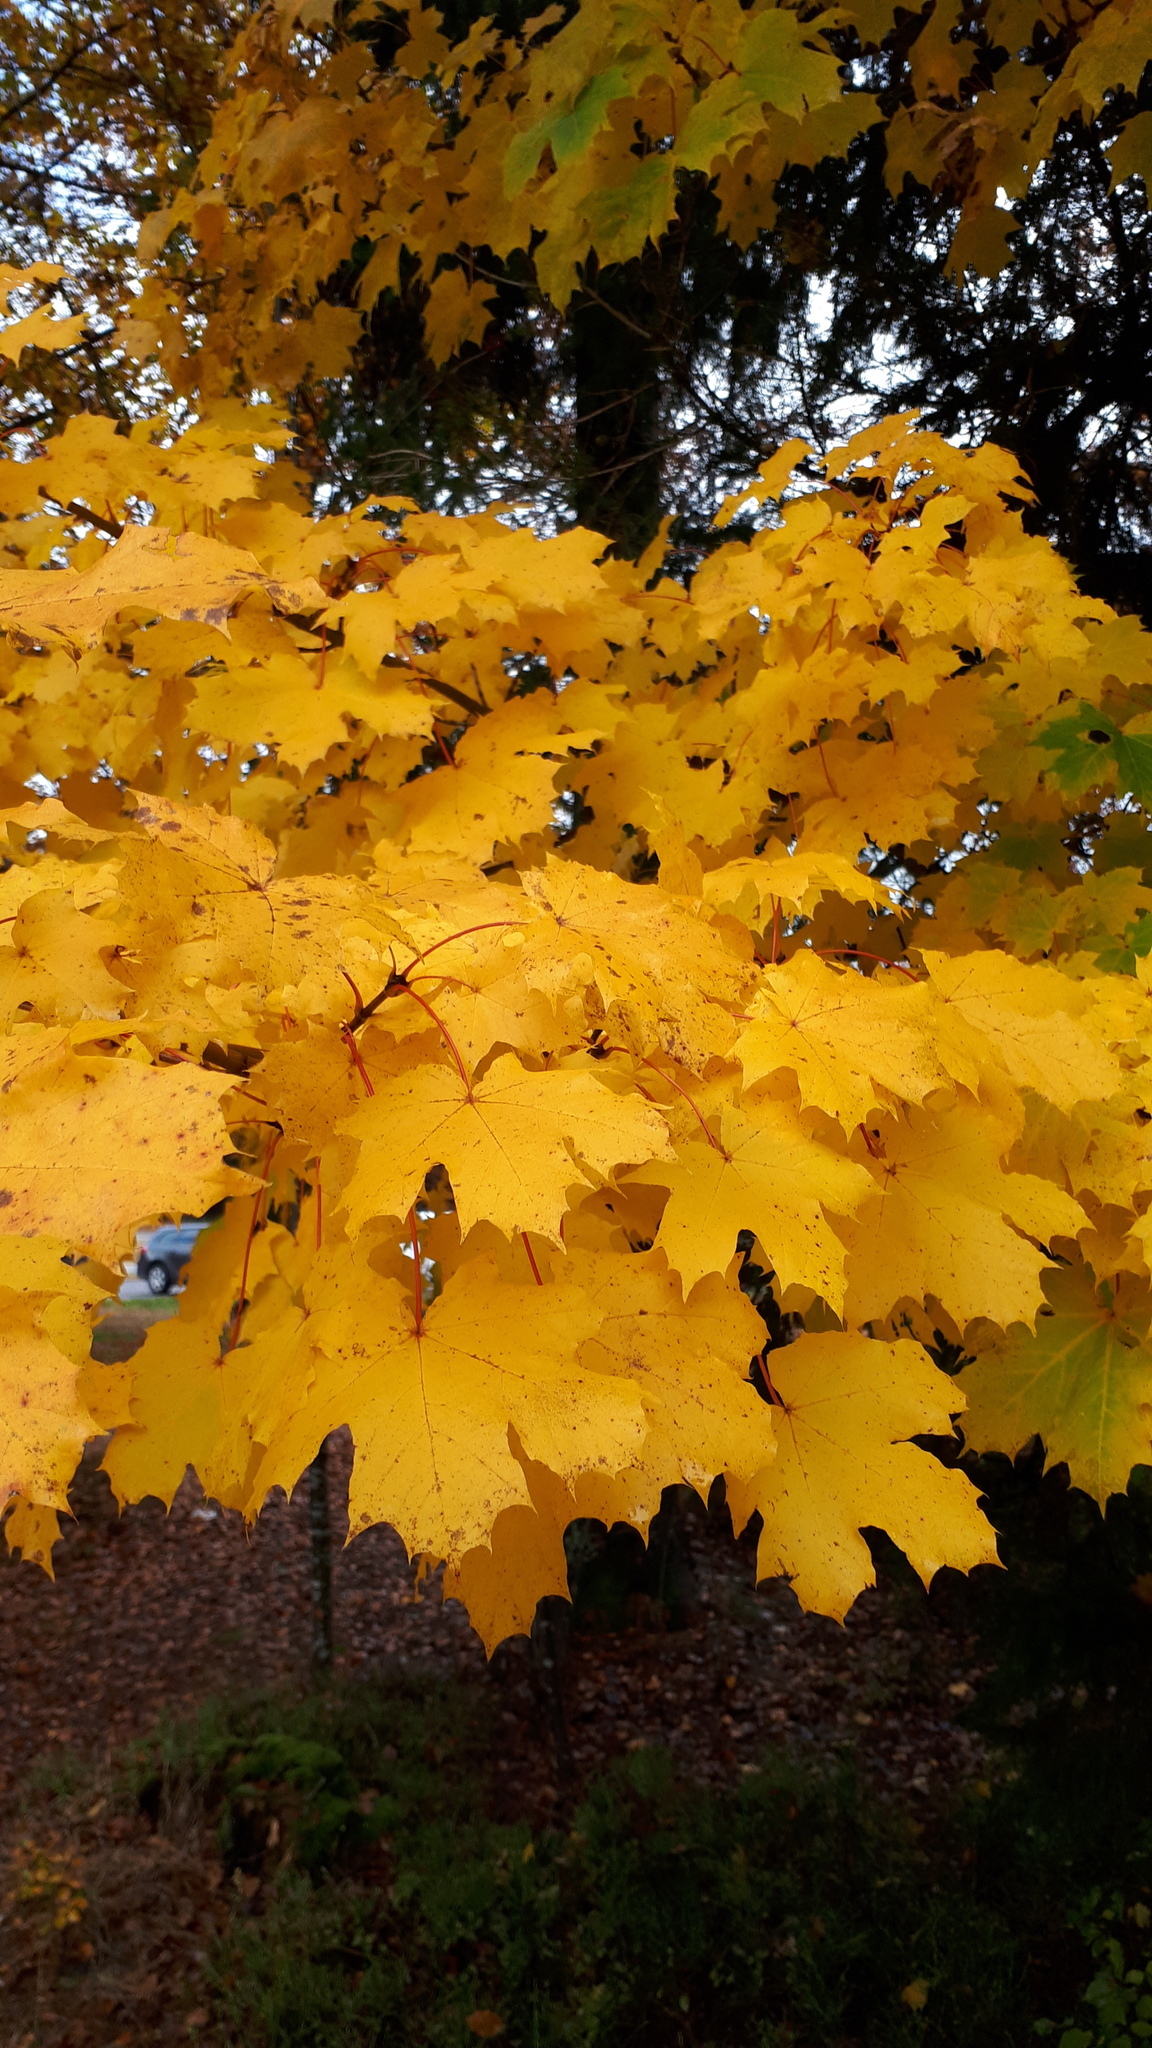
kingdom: Plantae
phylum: Tracheophyta
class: Magnoliopsida
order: Sapindales
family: Sapindaceae
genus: Acer
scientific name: Acer platanoides
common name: Norway maple
